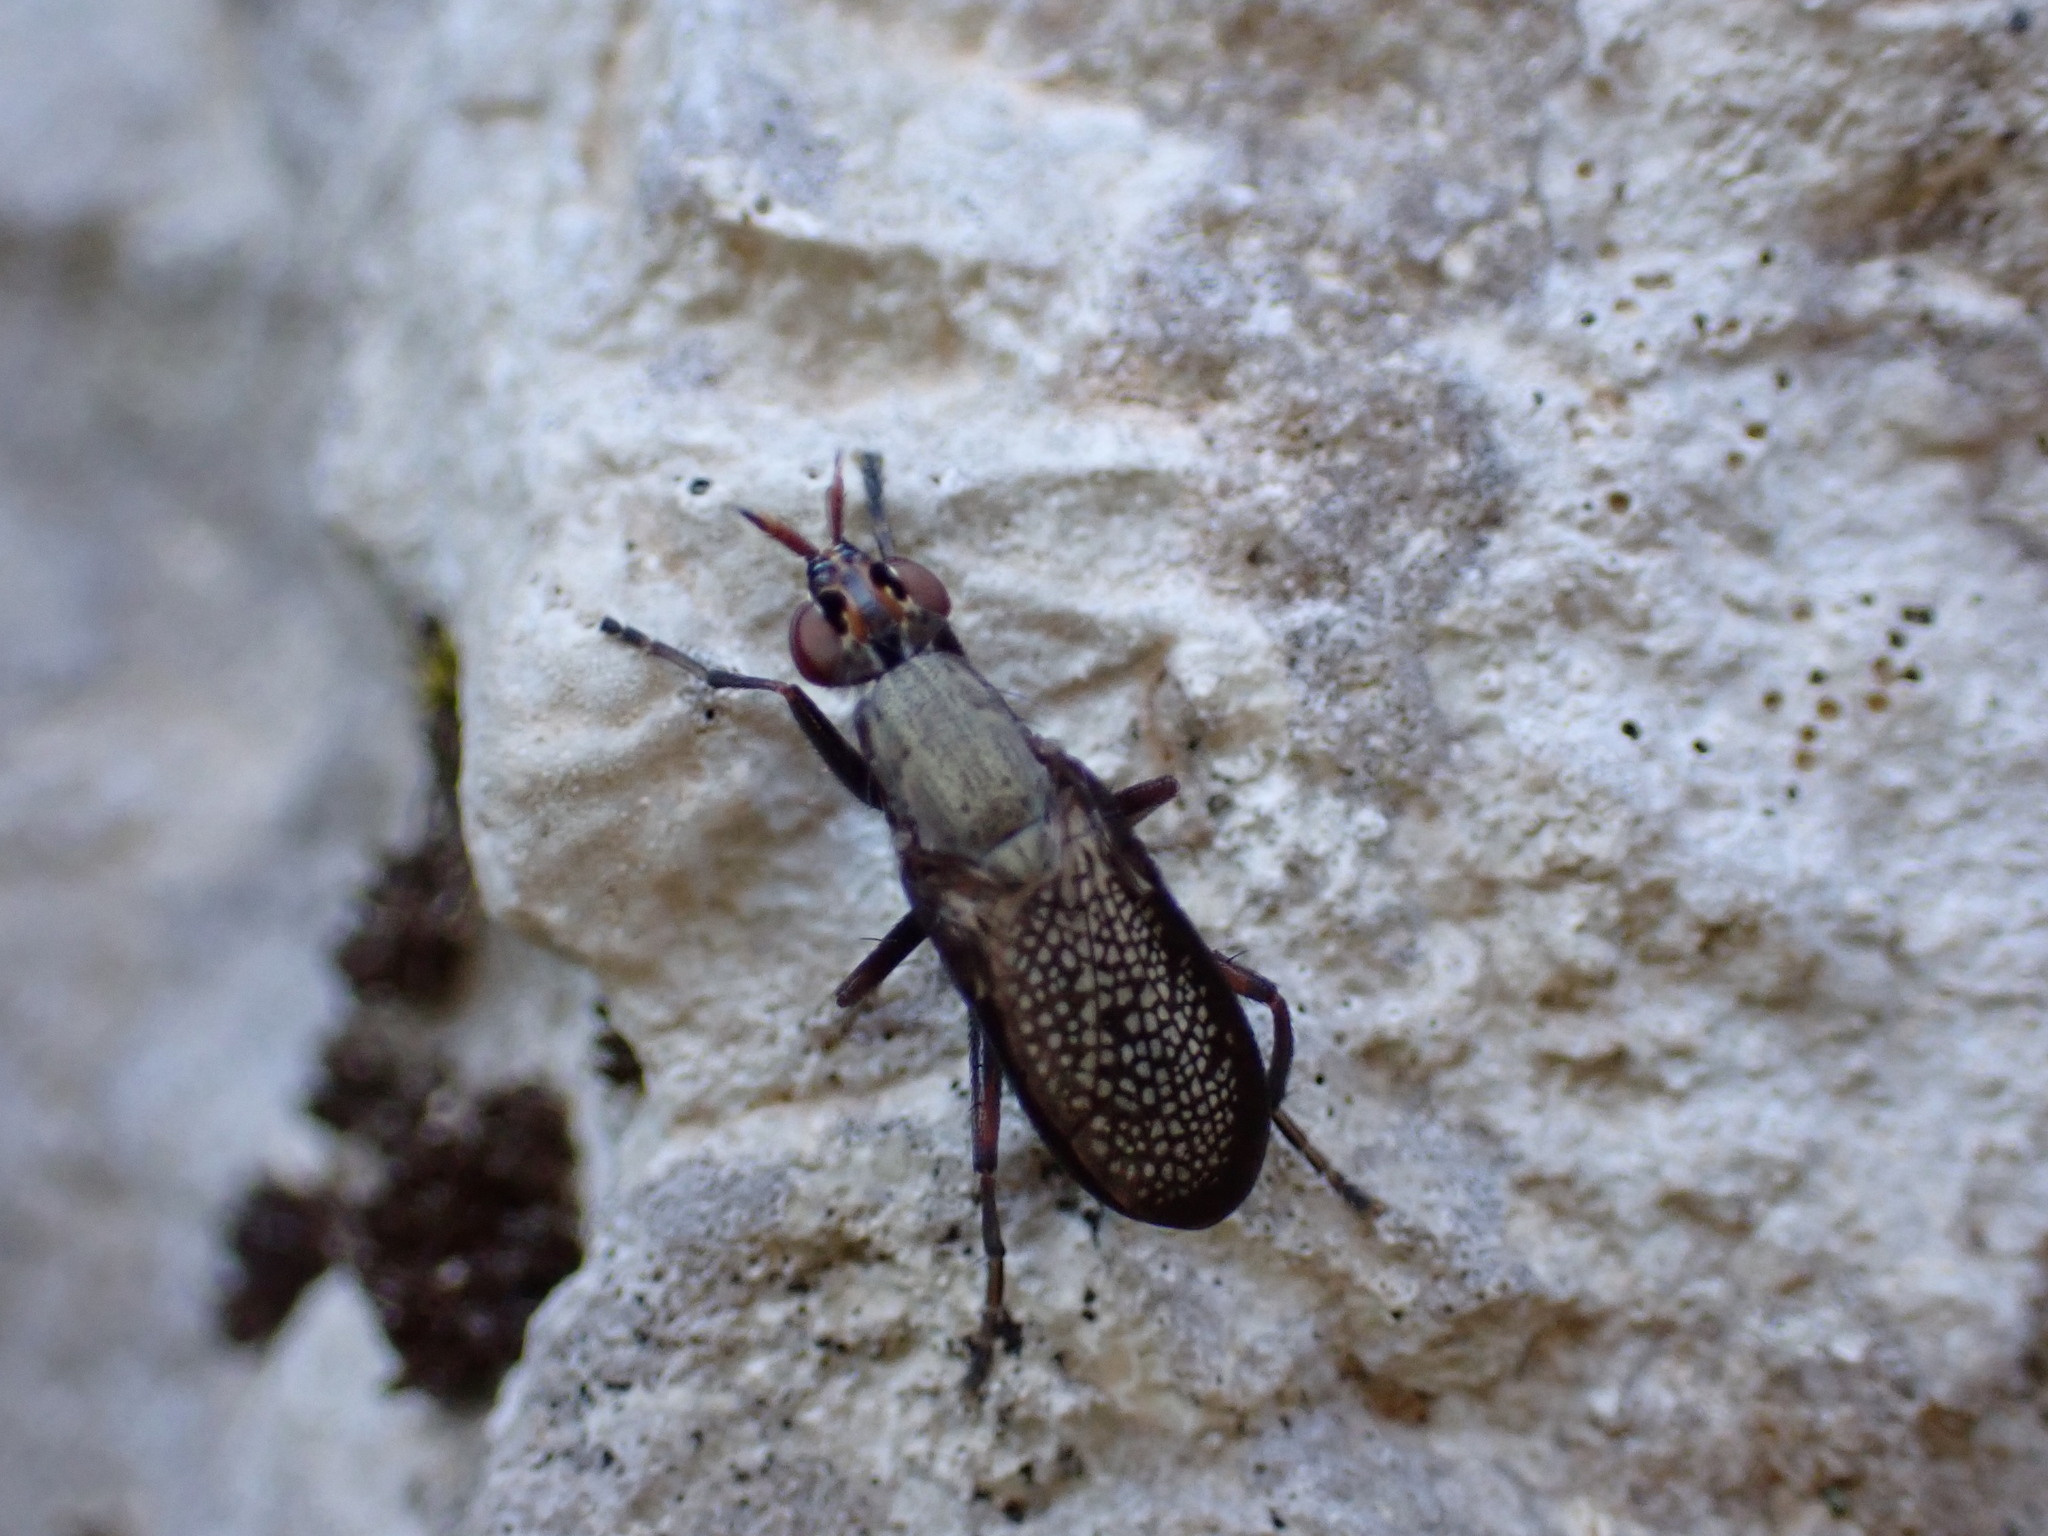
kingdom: Animalia
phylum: Arthropoda
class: Insecta
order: Diptera
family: Sciomyzidae
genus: Coremacera
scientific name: Coremacera marginata
